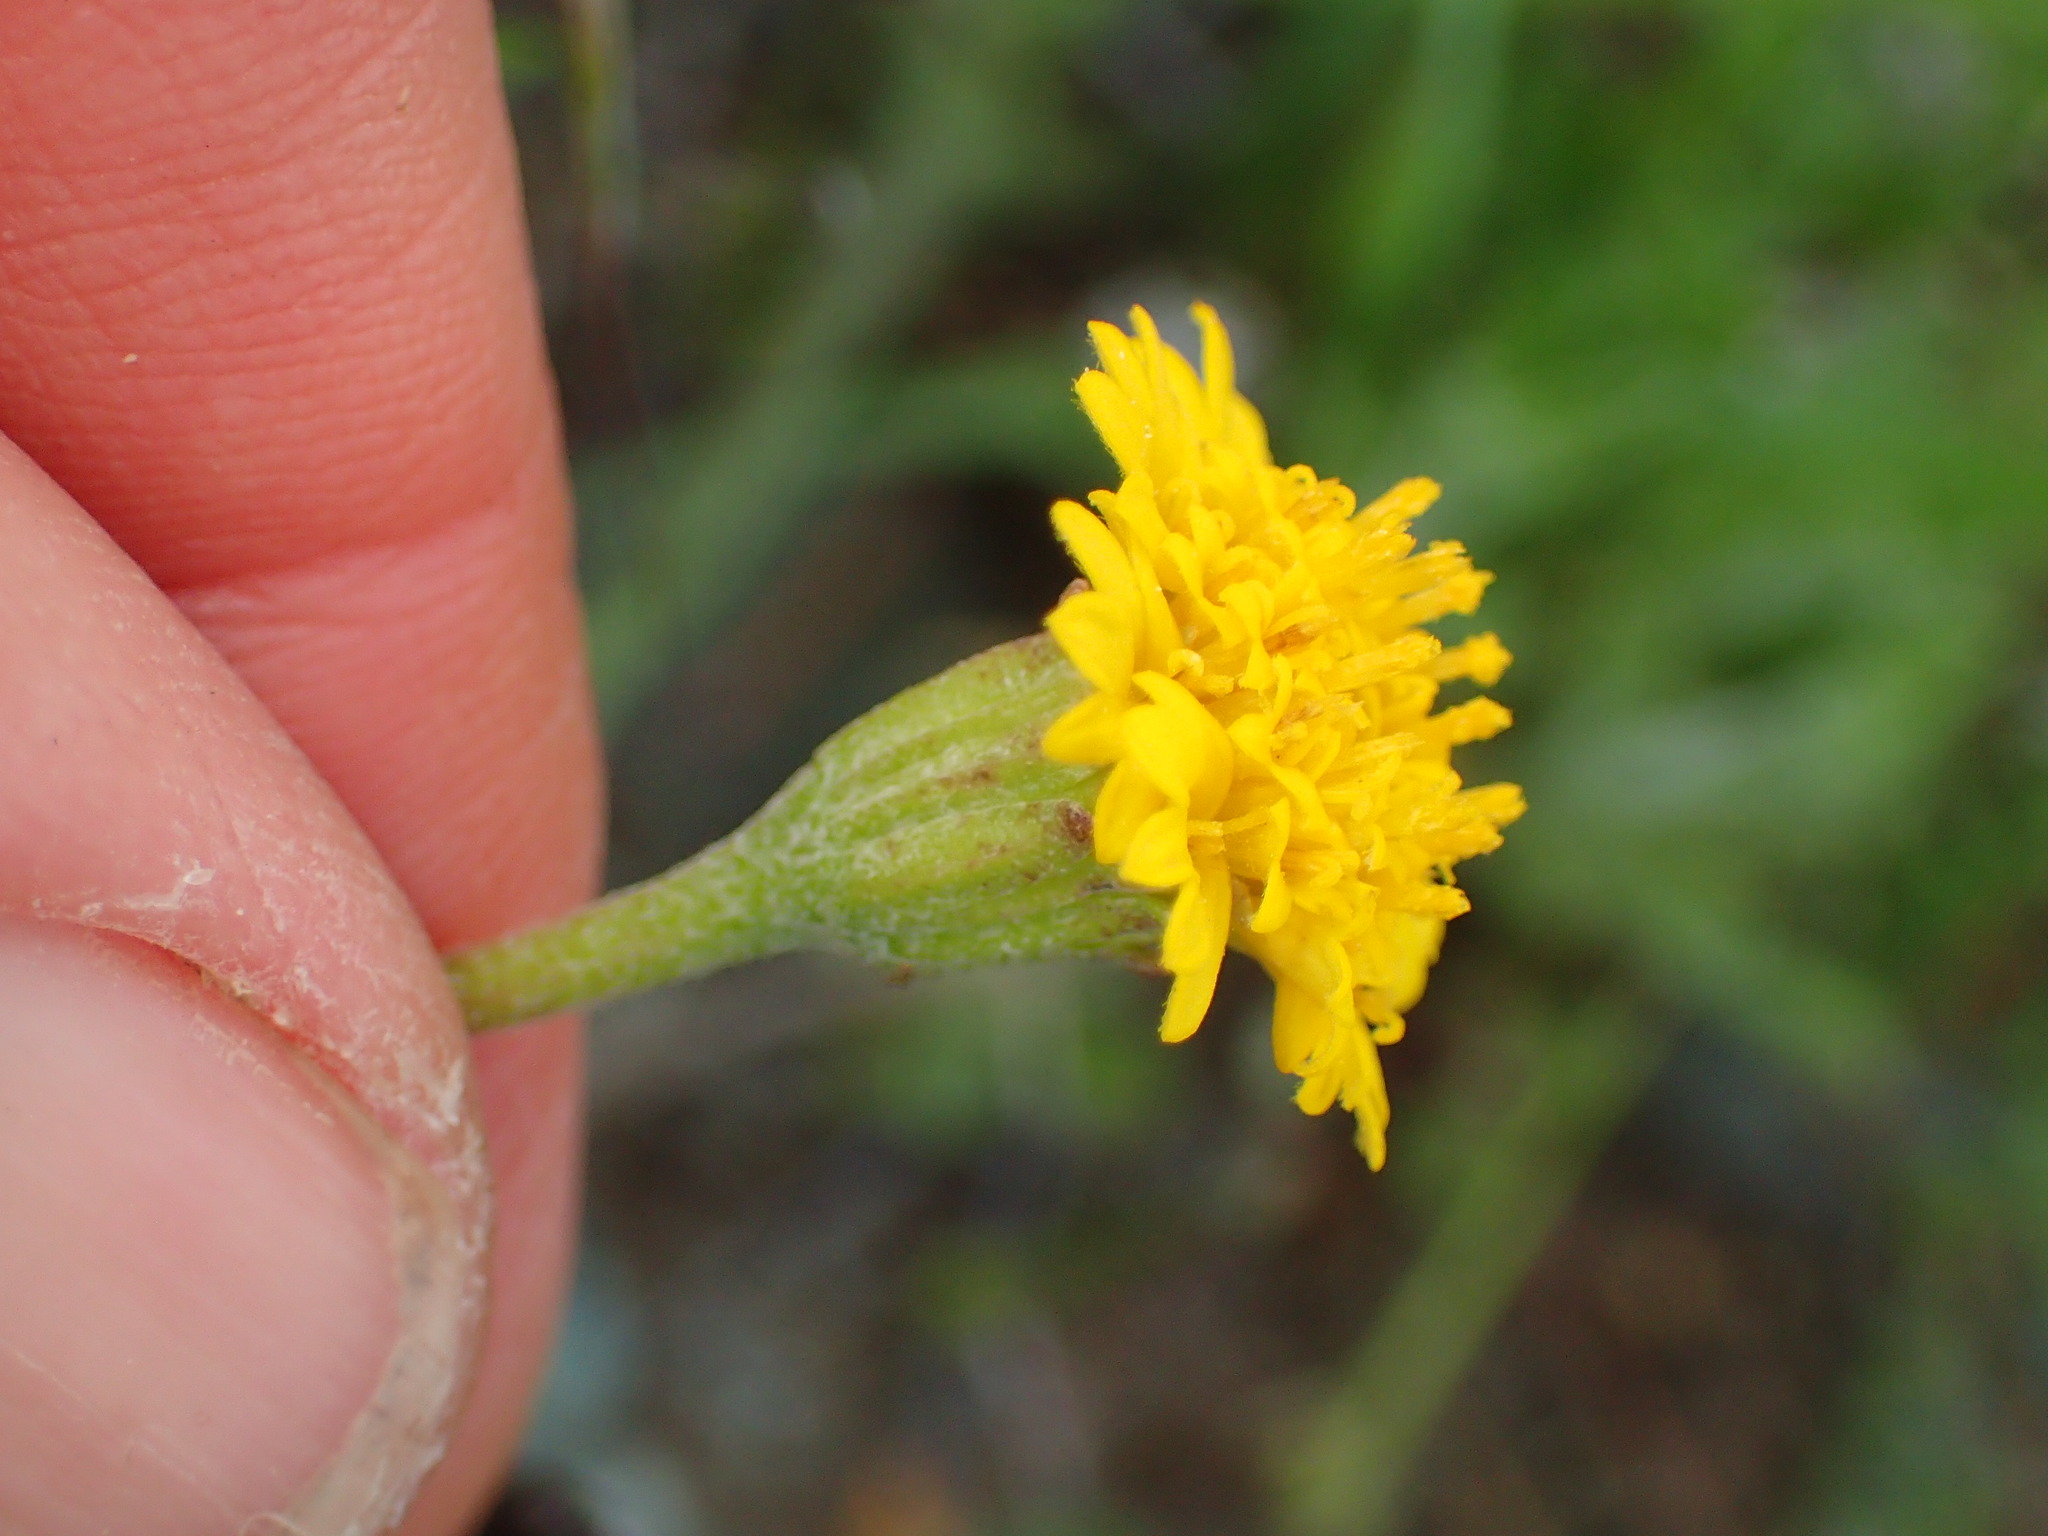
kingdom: Plantae
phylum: Tracheophyta
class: Magnoliopsida
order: Asterales
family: Asteraceae
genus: Chaenactis
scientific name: Chaenactis glabriuscula
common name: Yellow pincushion
